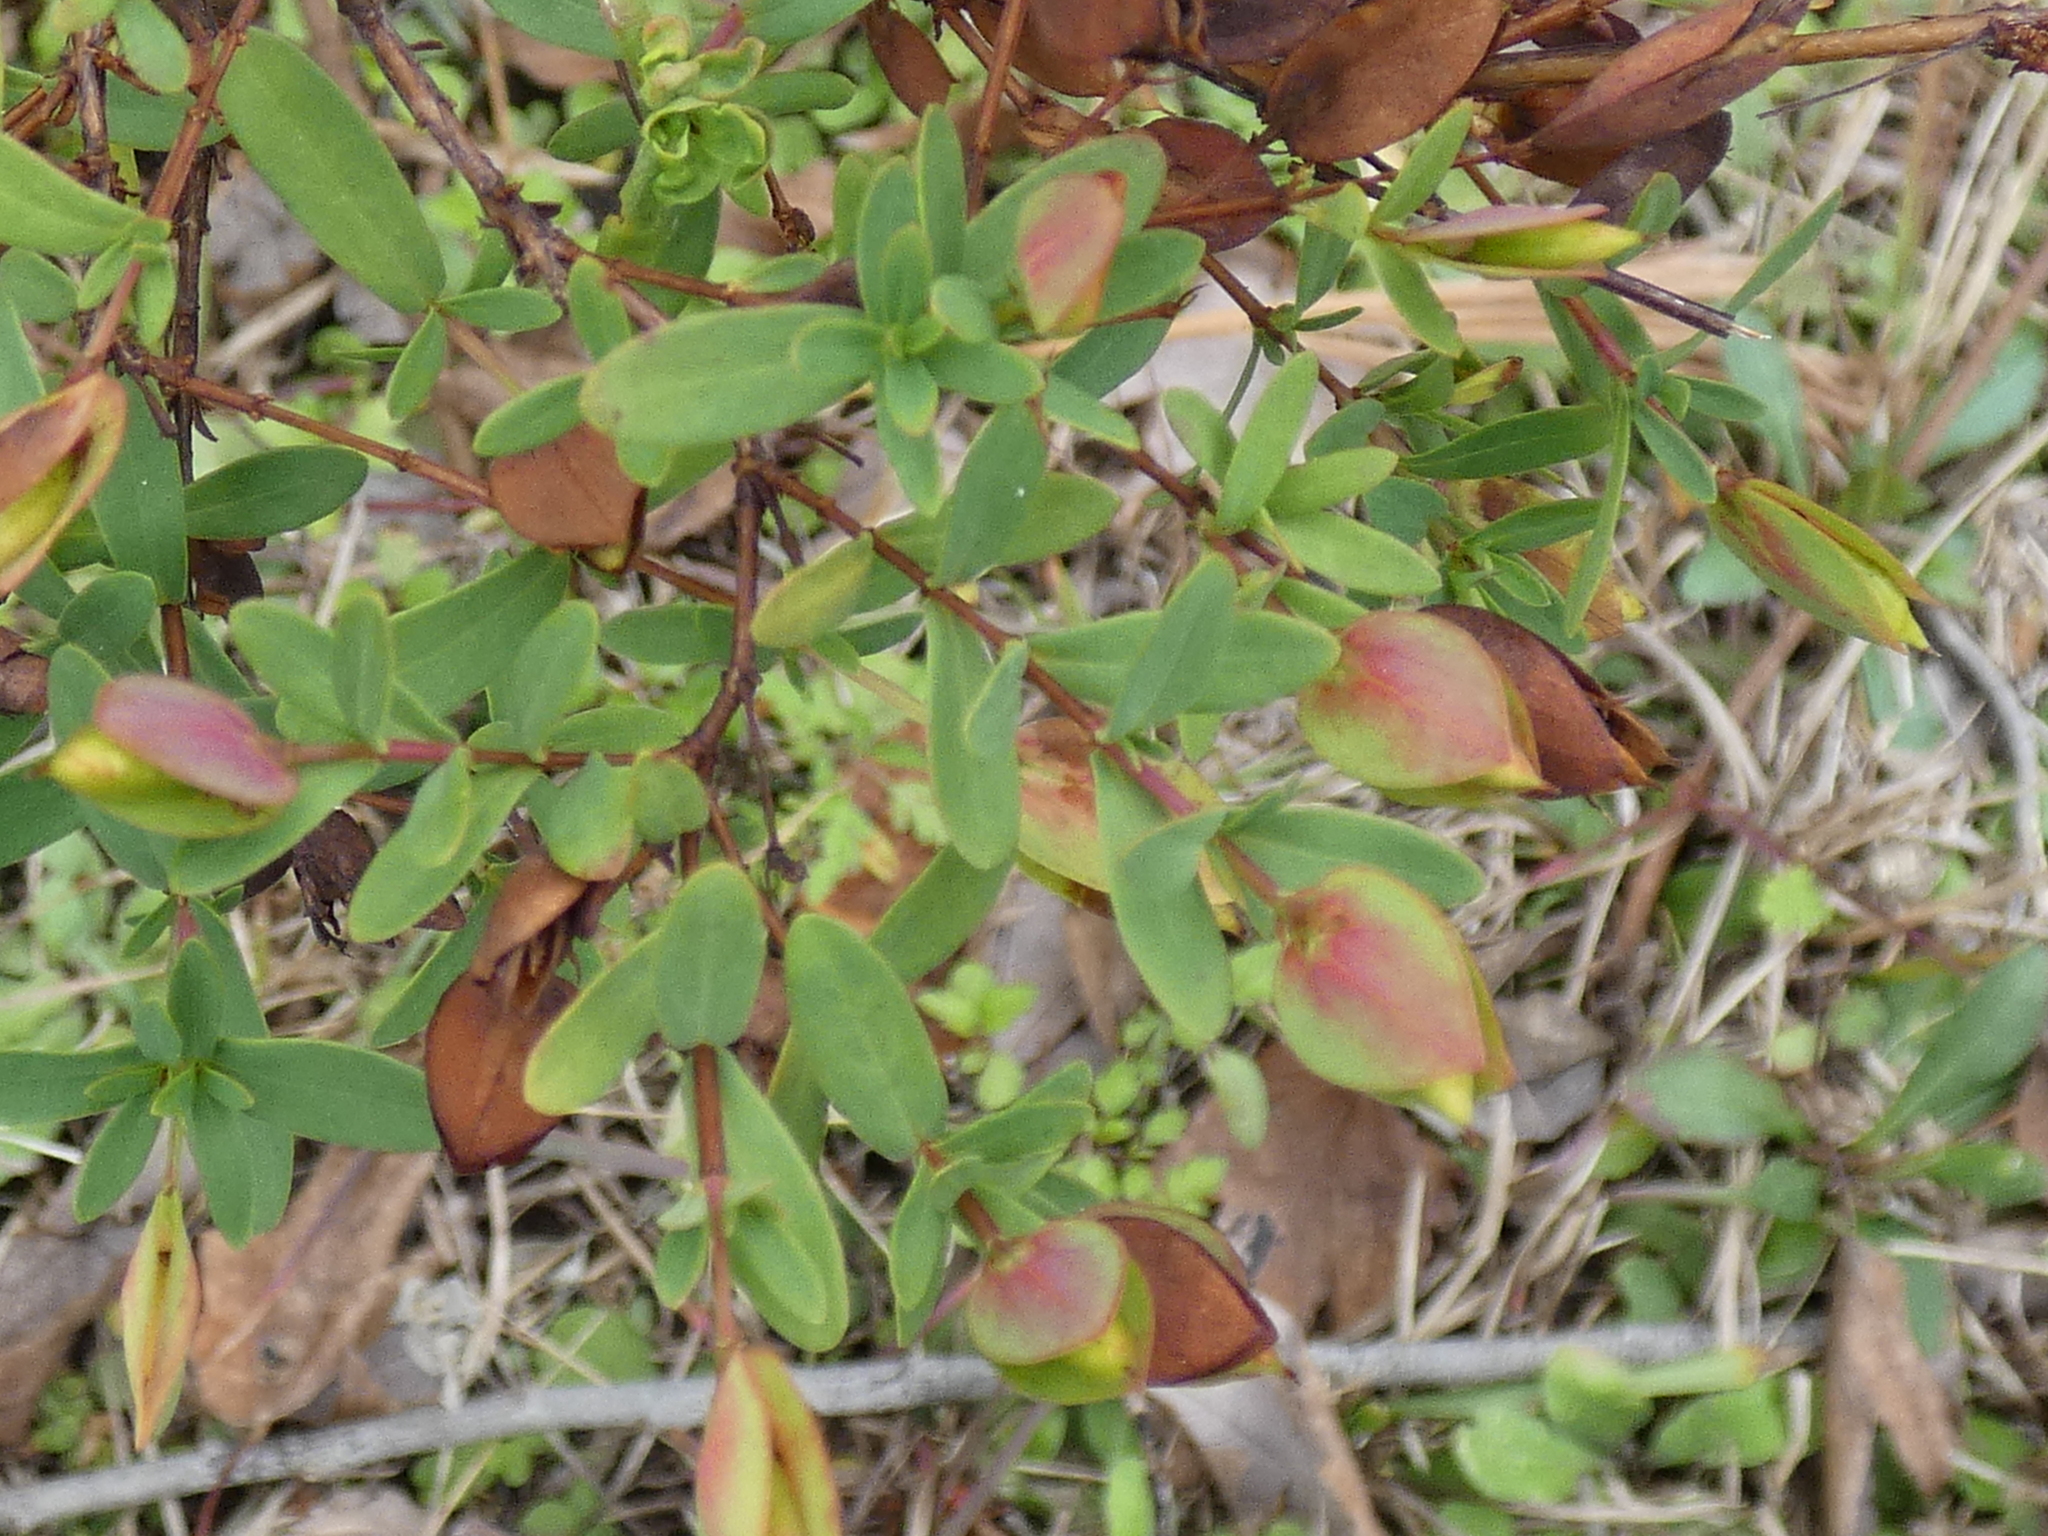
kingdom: Plantae
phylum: Tracheophyta
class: Magnoliopsida
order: Malpighiales
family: Hypericaceae
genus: Hypericum
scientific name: Hypericum hypericoides
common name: St. andrew's cross
